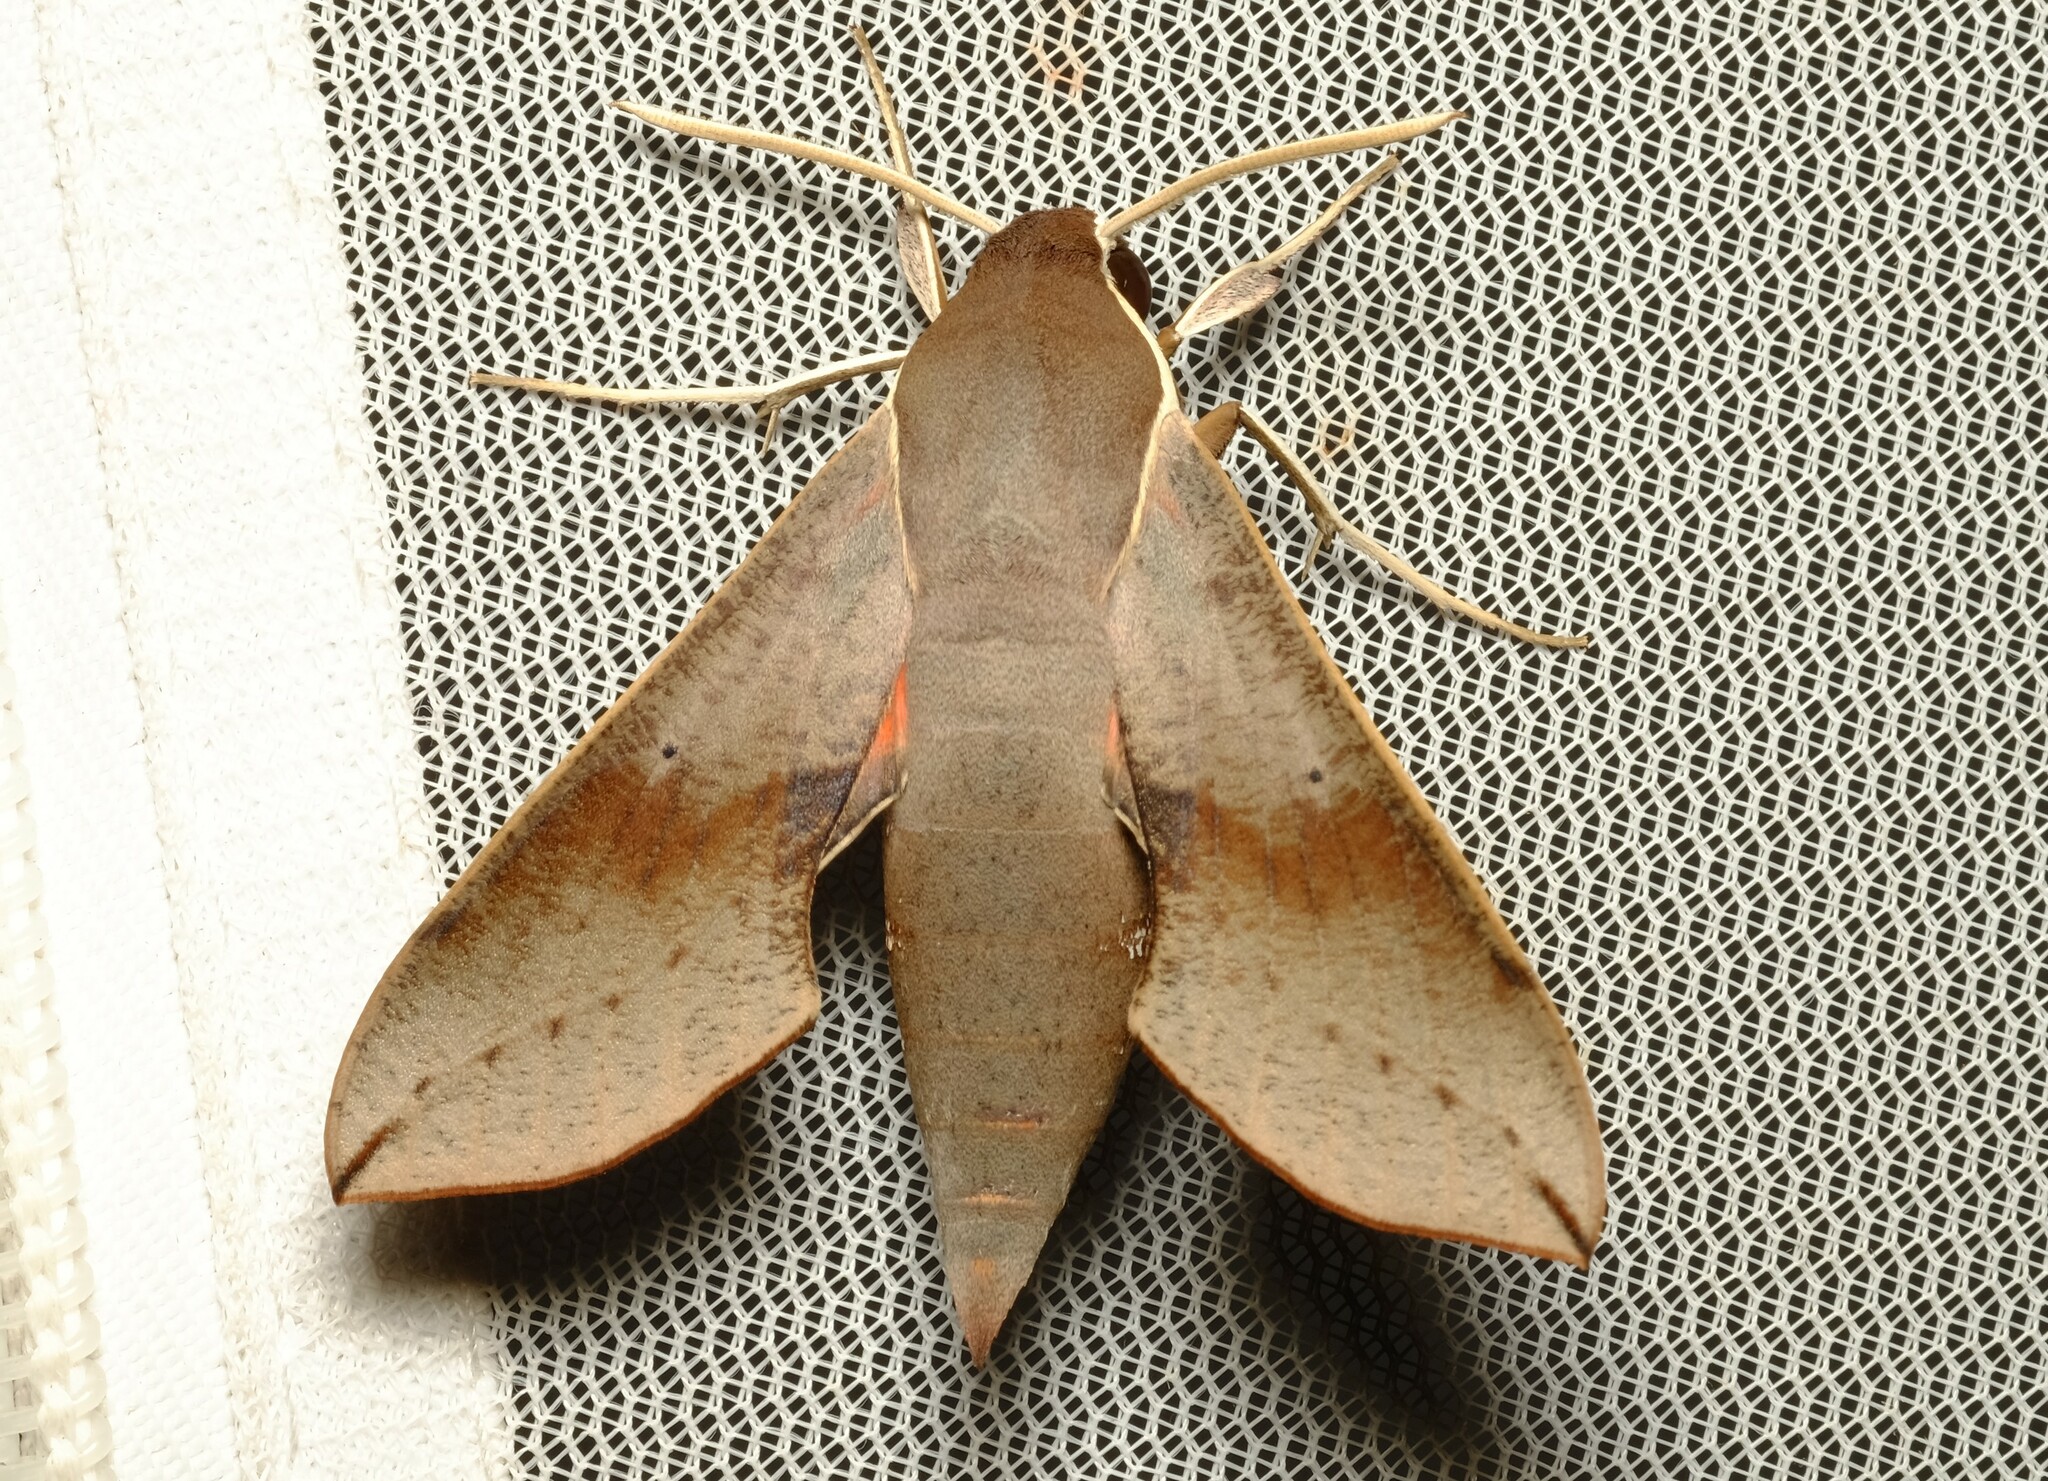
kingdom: Animalia
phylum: Arthropoda
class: Insecta
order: Lepidoptera
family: Sphingidae
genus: Hippotion
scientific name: Hippotion scrofa
